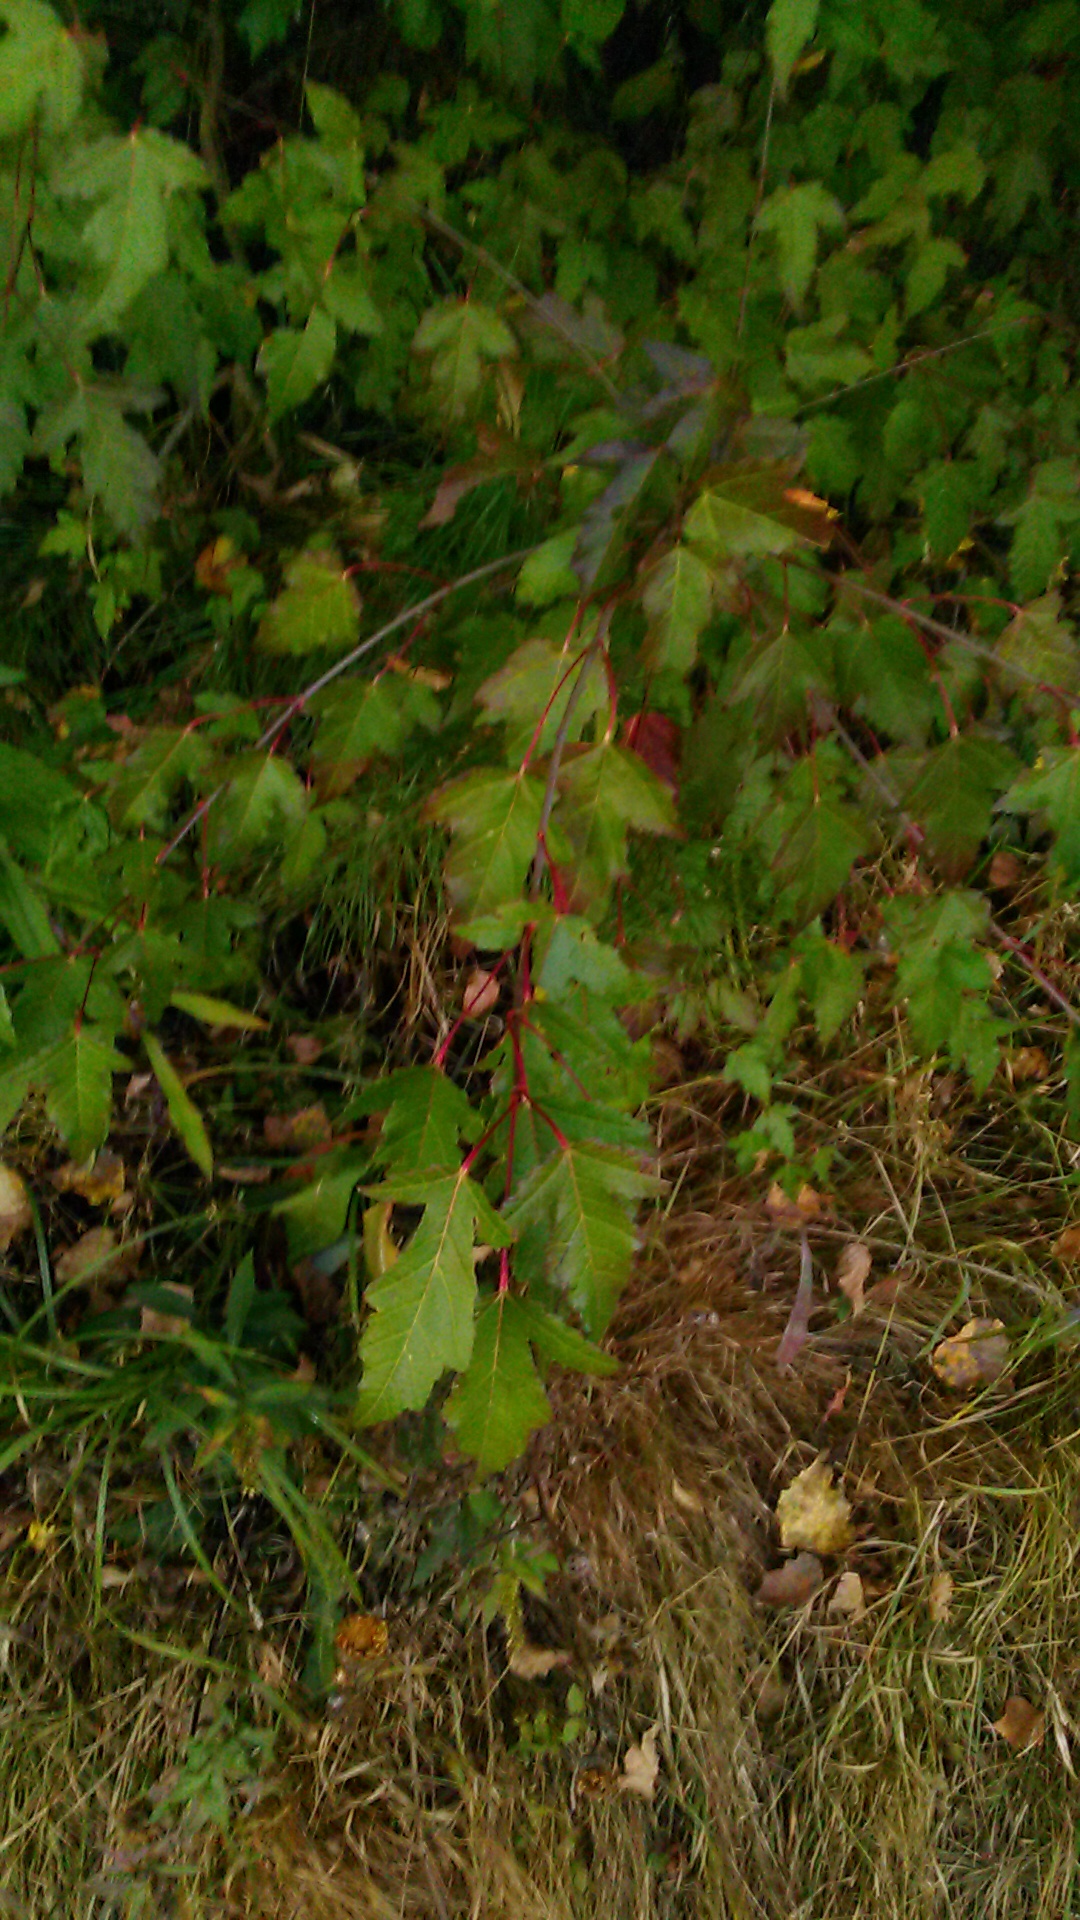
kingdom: Plantae
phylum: Tracheophyta
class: Magnoliopsida
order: Sapindales
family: Sapindaceae
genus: Acer
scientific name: Acer tataricum
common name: Tartar maple
